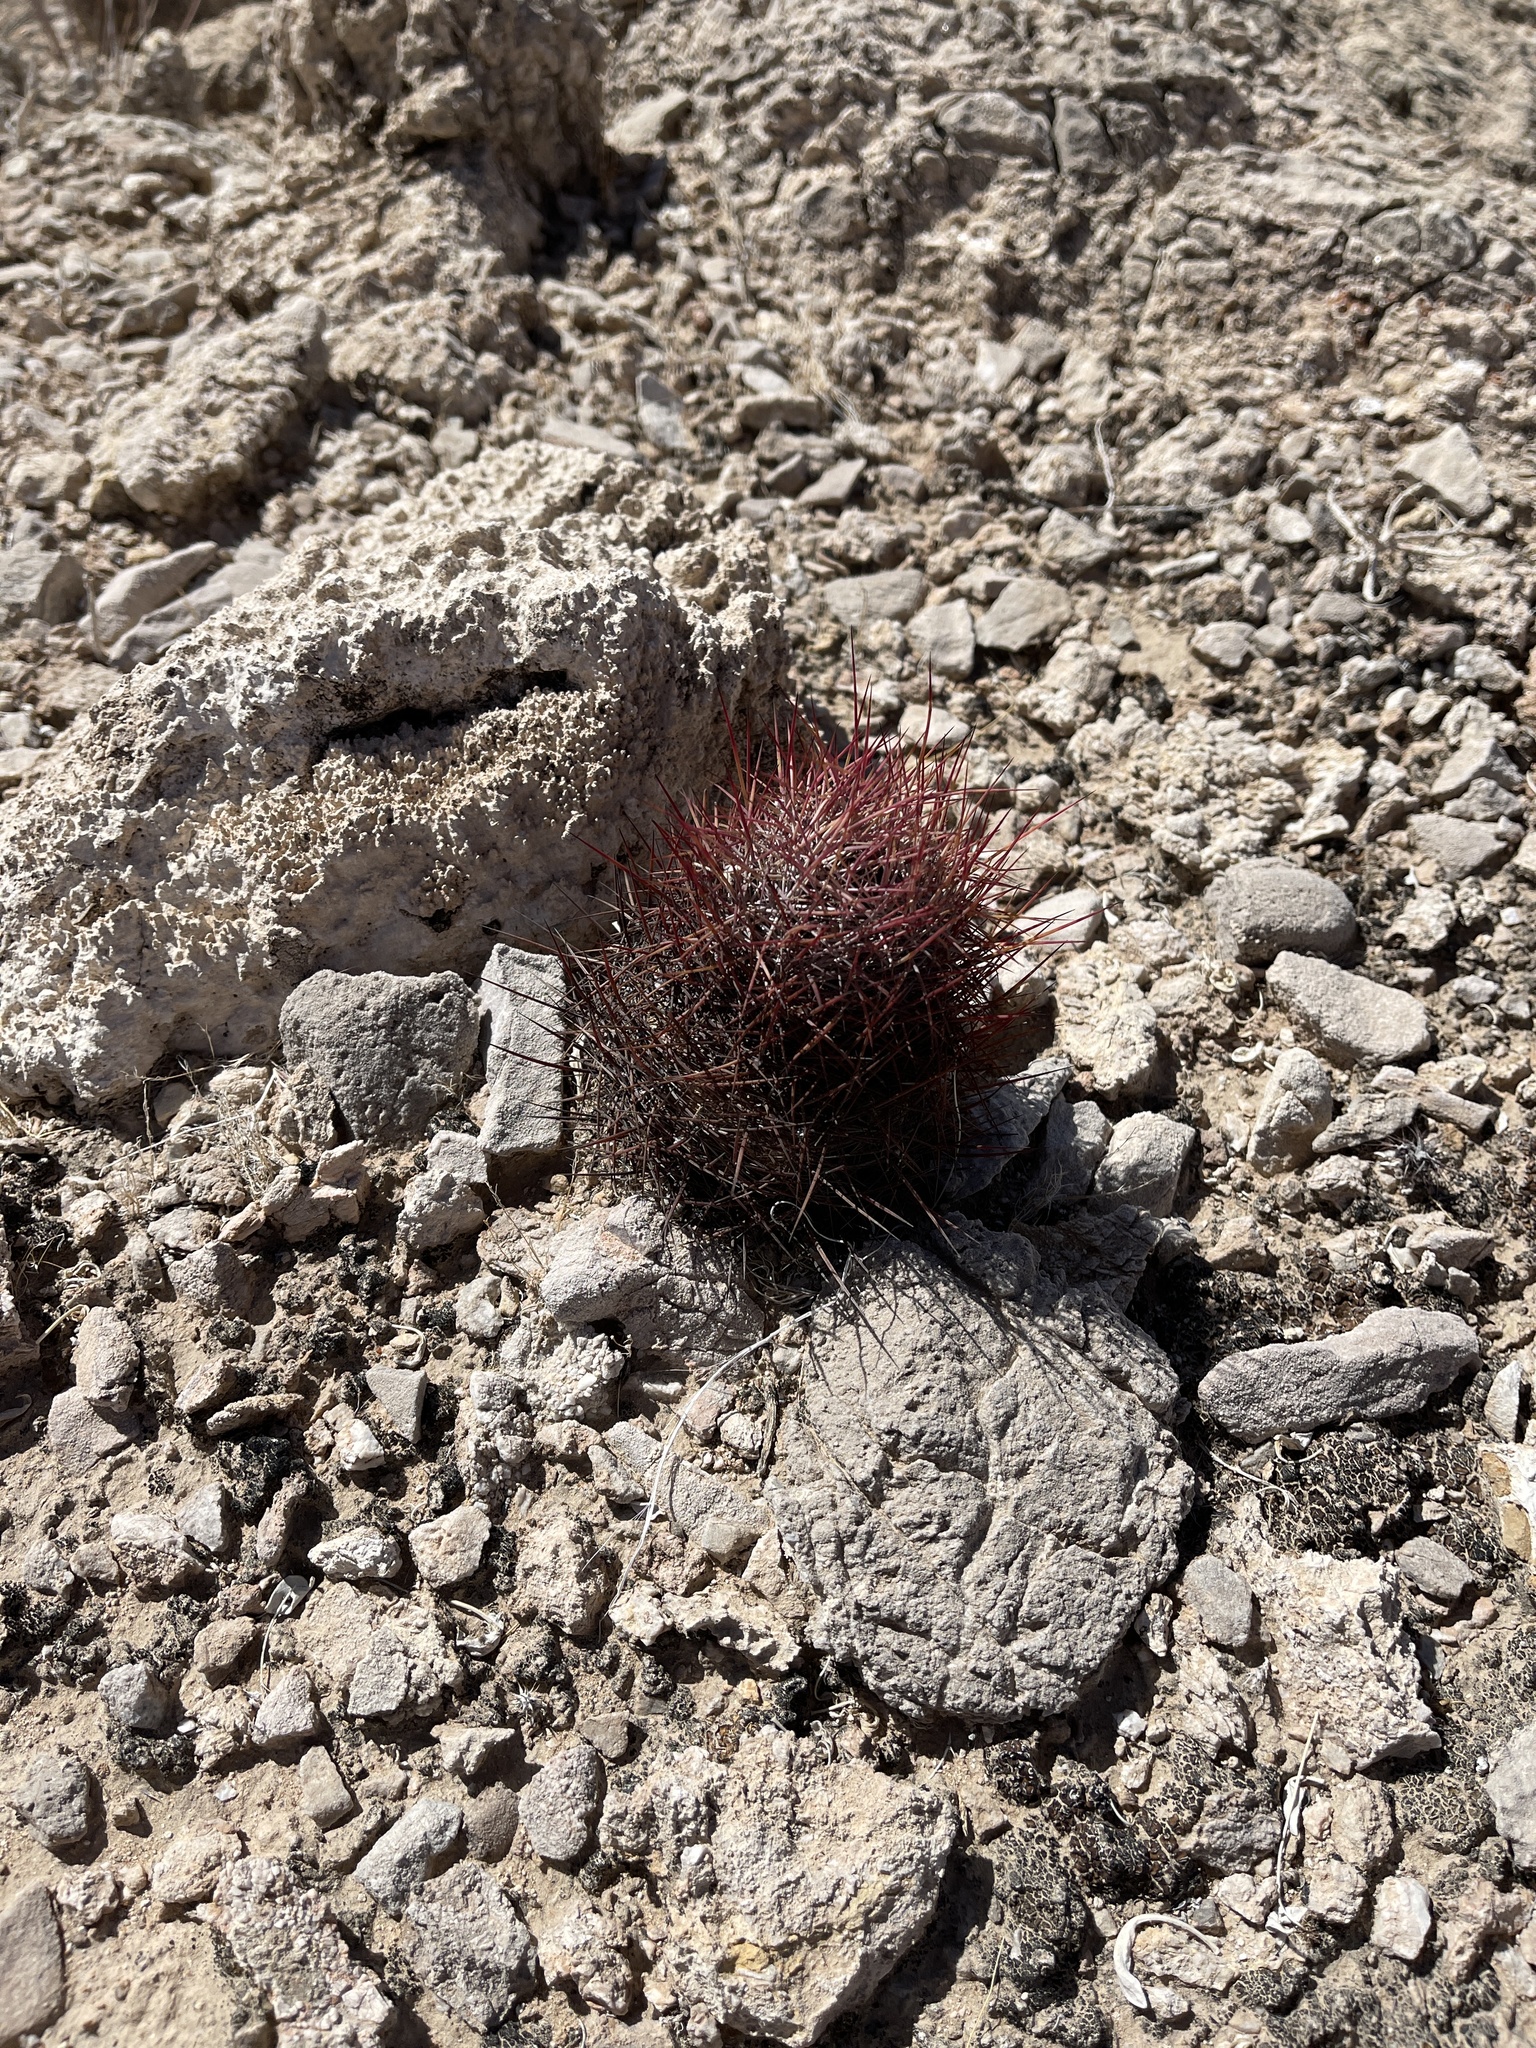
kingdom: Plantae
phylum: Tracheophyta
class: Magnoliopsida
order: Caryophyllales
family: Cactaceae
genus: Sclerocactus
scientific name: Sclerocactus johnsonii
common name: Eight-spine fishhook cactus
